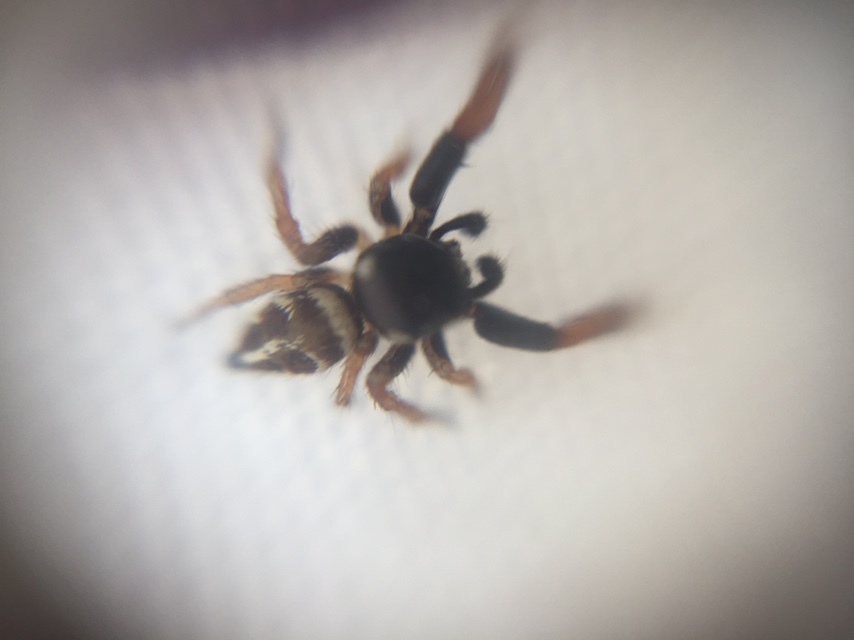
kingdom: Animalia
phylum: Arthropoda
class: Arachnida
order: Araneae
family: Salticidae
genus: Pellenes
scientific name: Pellenes iva
